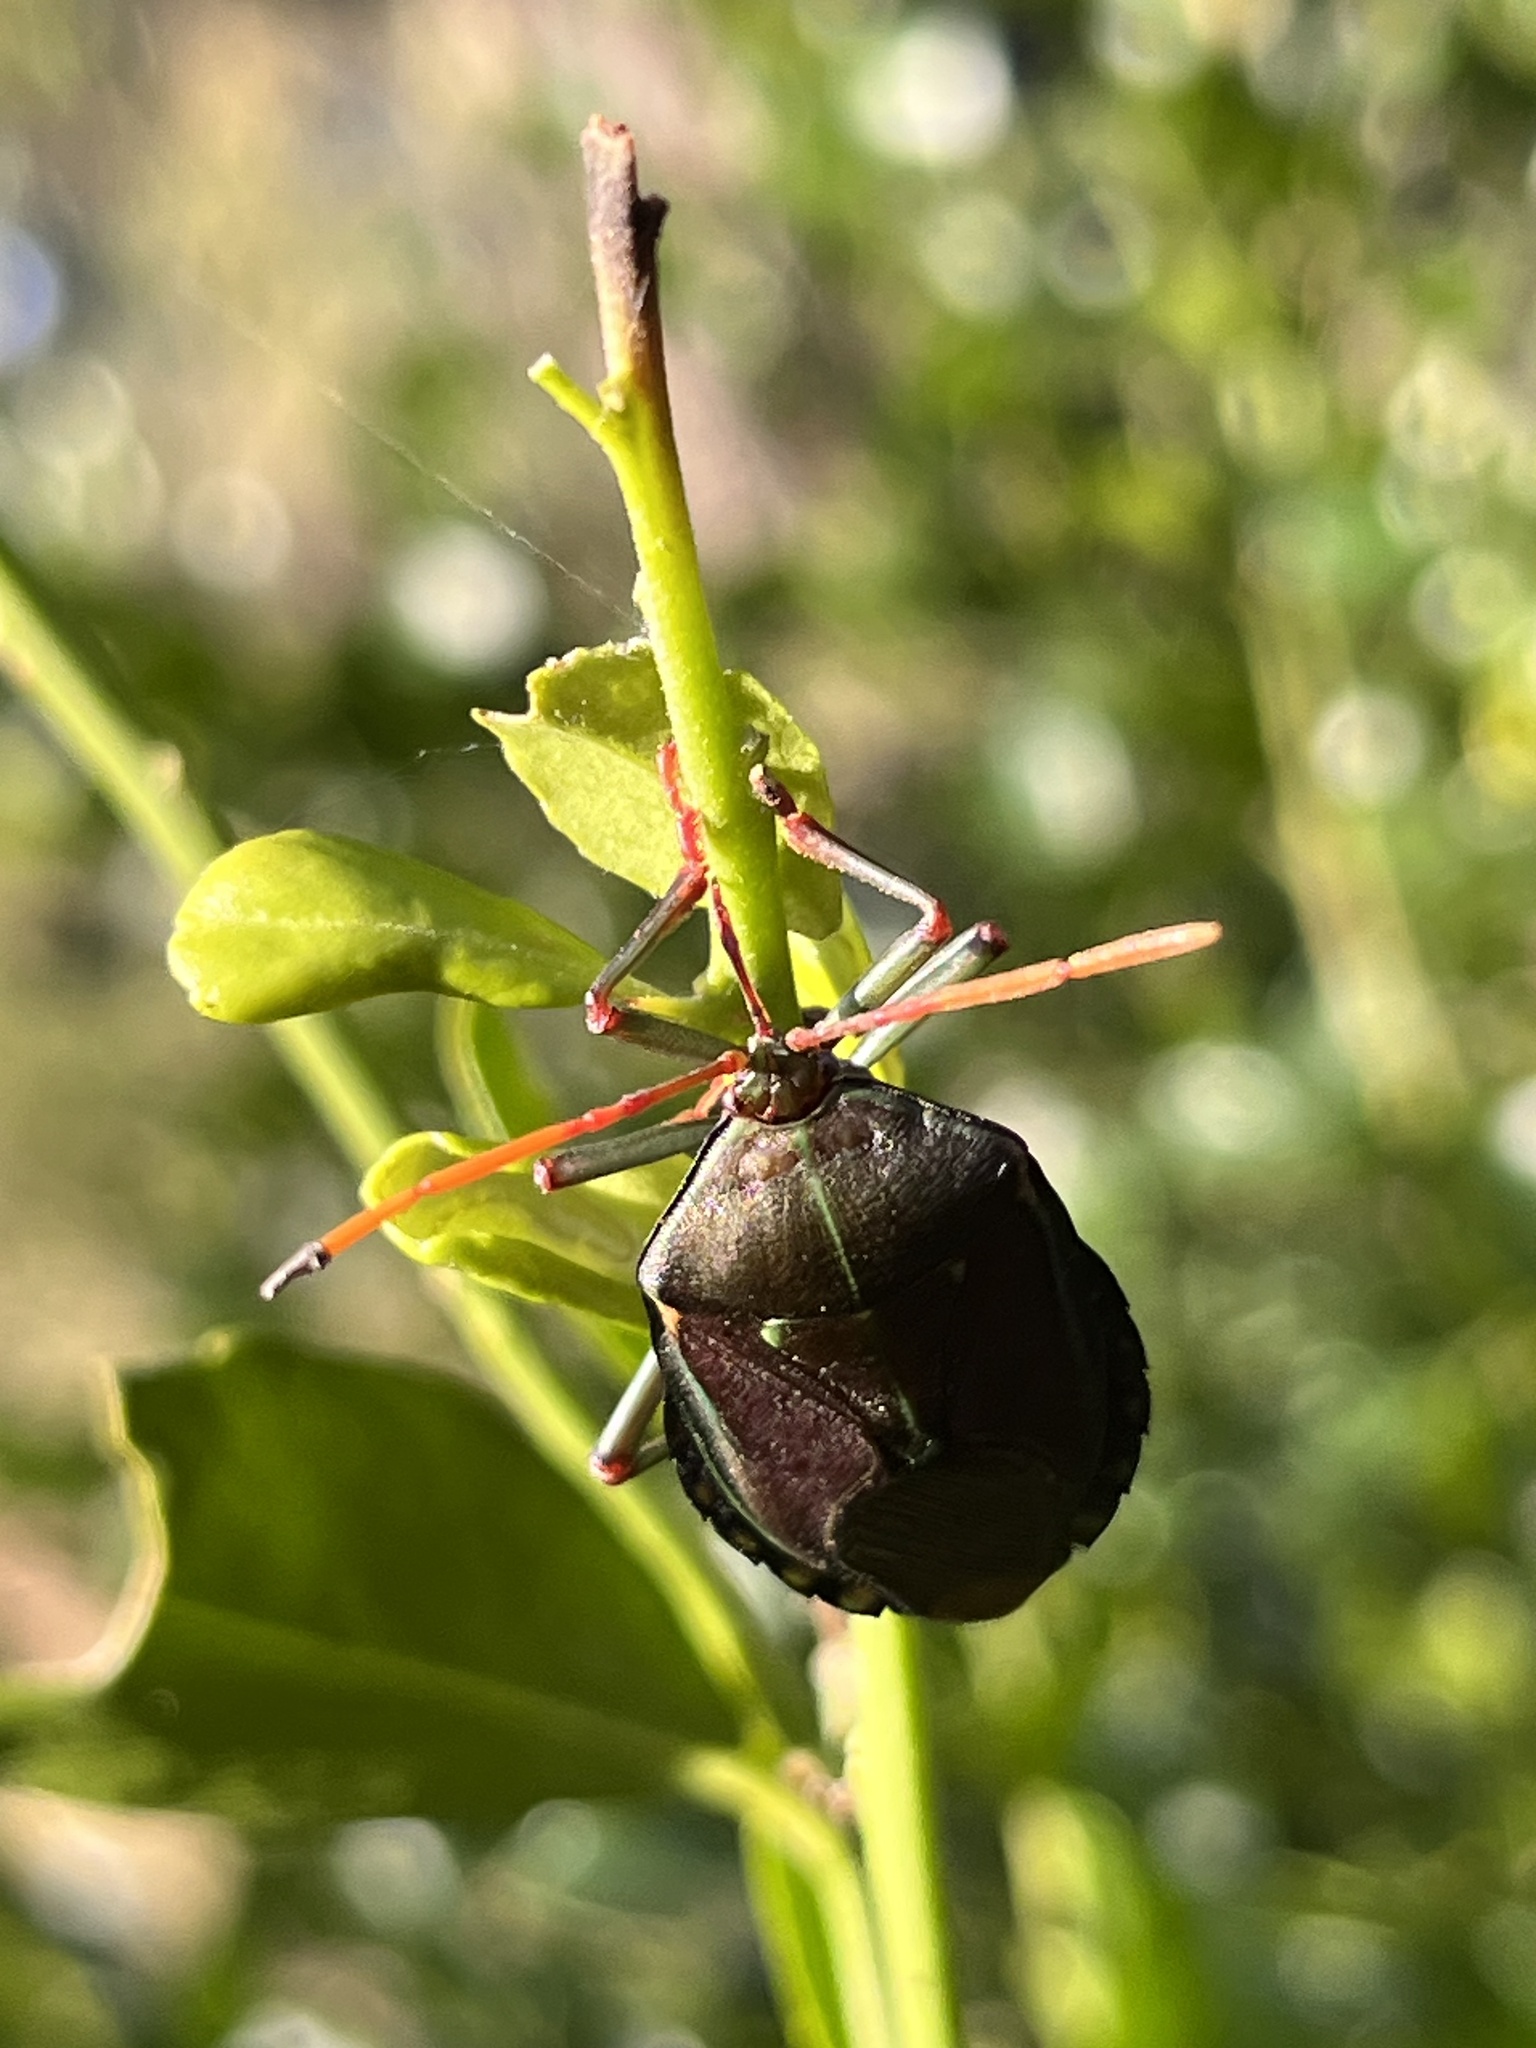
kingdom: Animalia
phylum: Arthropoda
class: Insecta
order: Hemiptera
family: Tessaratomidae
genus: Musgraveia
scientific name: Musgraveia sulciventris
